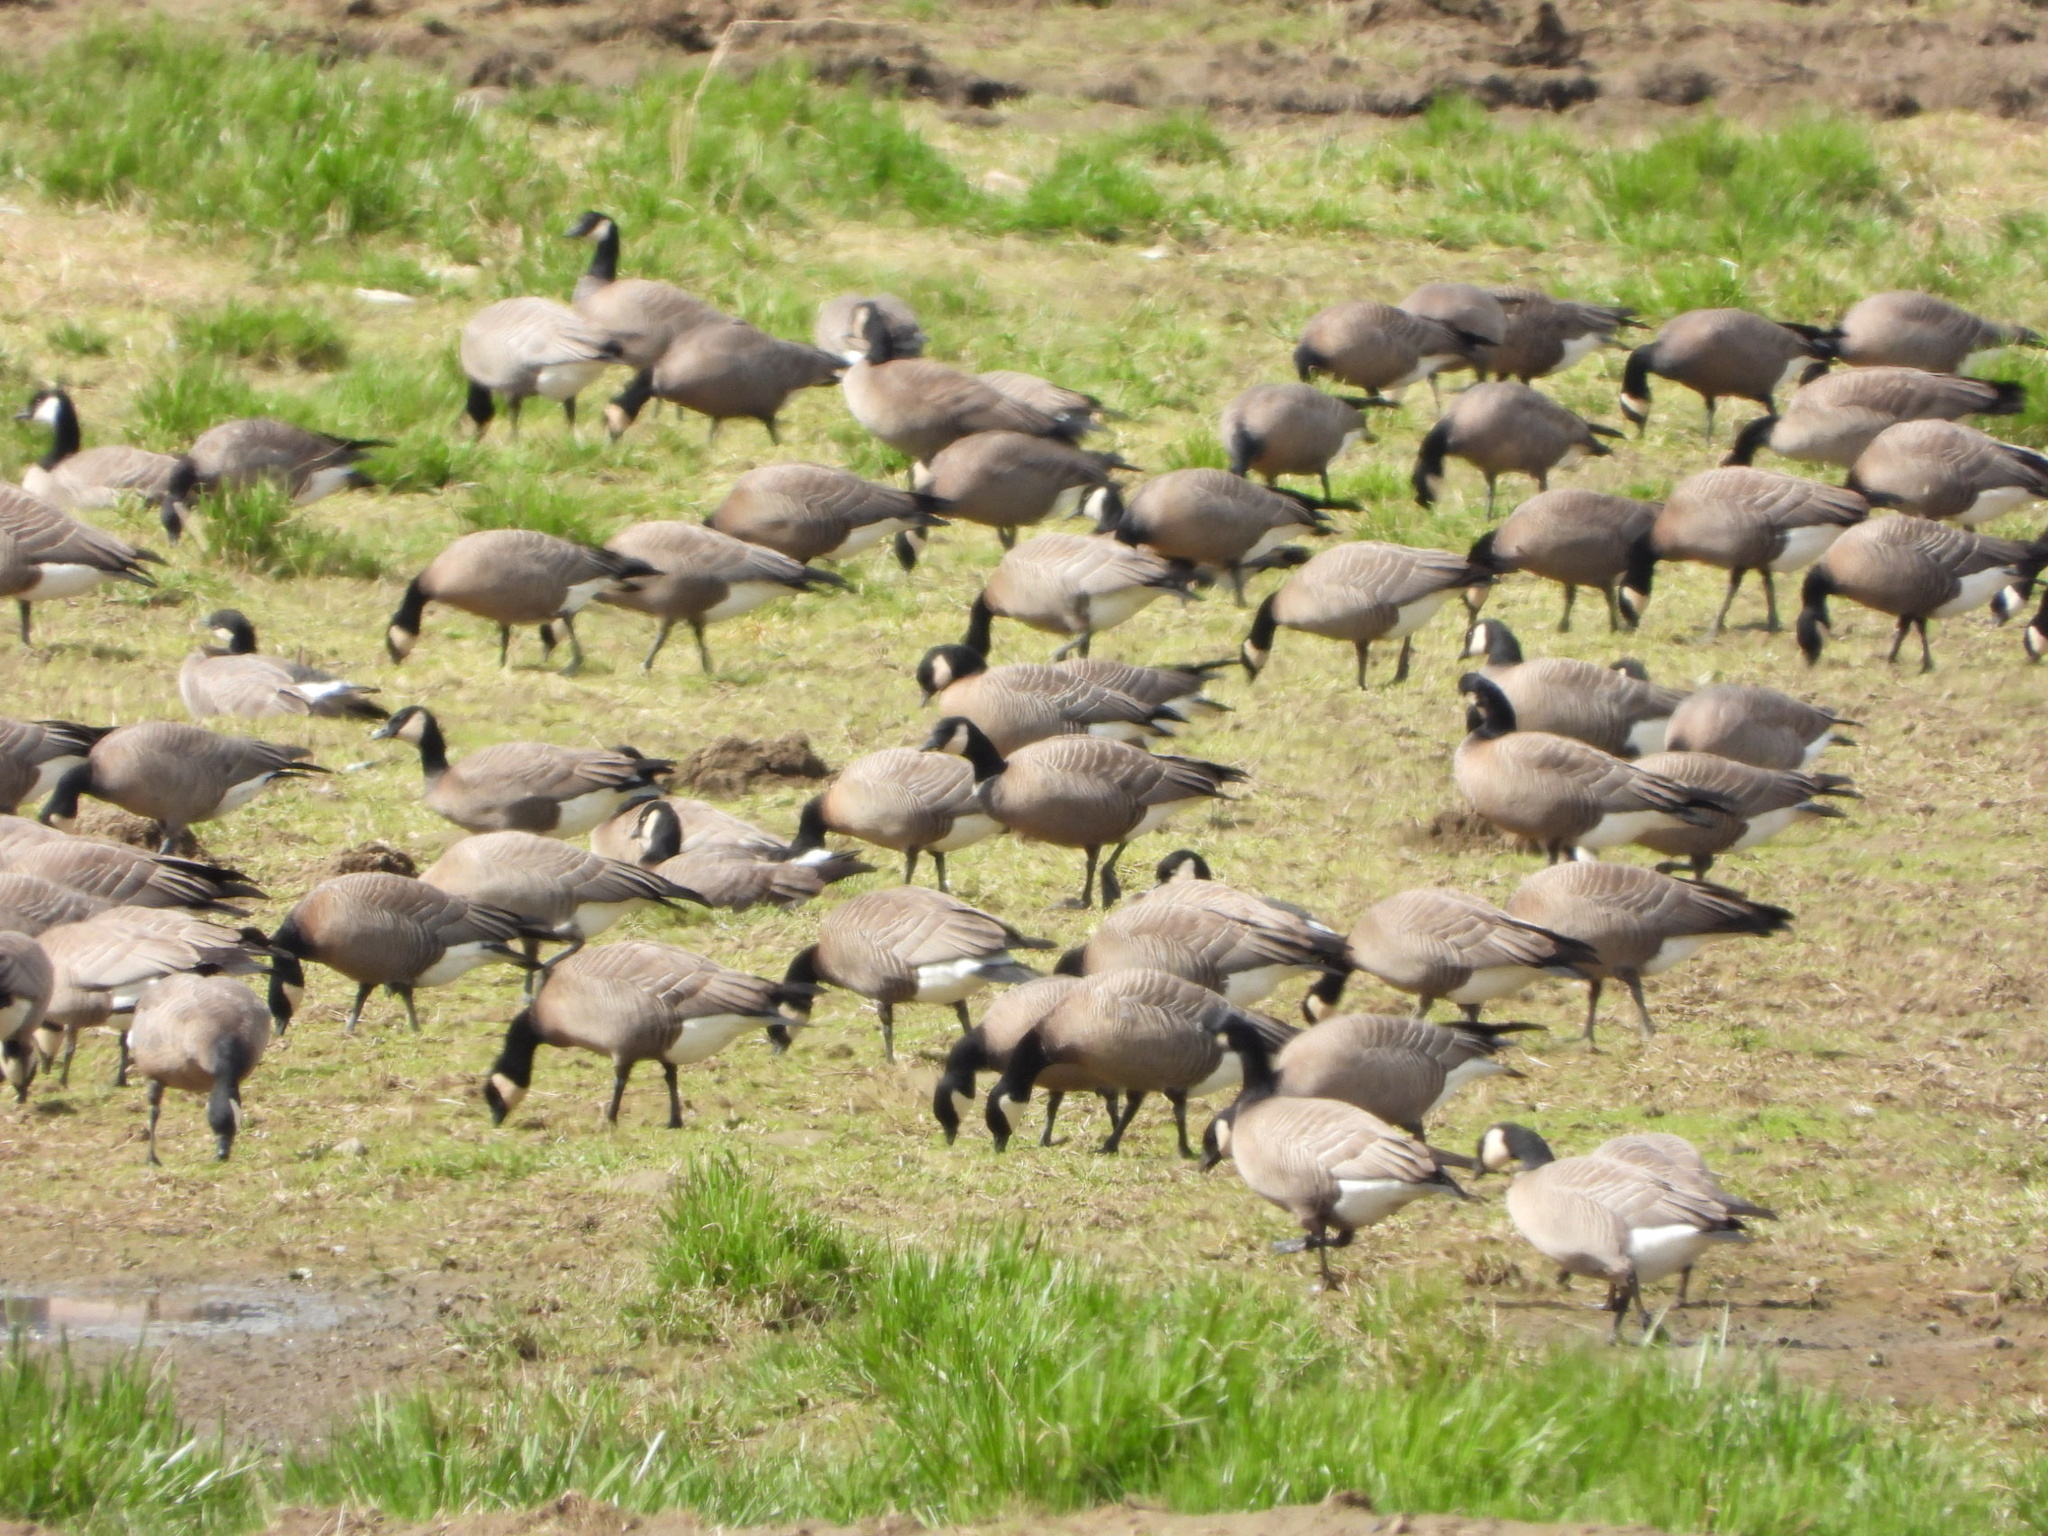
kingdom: Animalia
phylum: Chordata
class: Aves
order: Anseriformes
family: Anatidae
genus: Branta
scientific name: Branta hutchinsii
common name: Cackling goose
